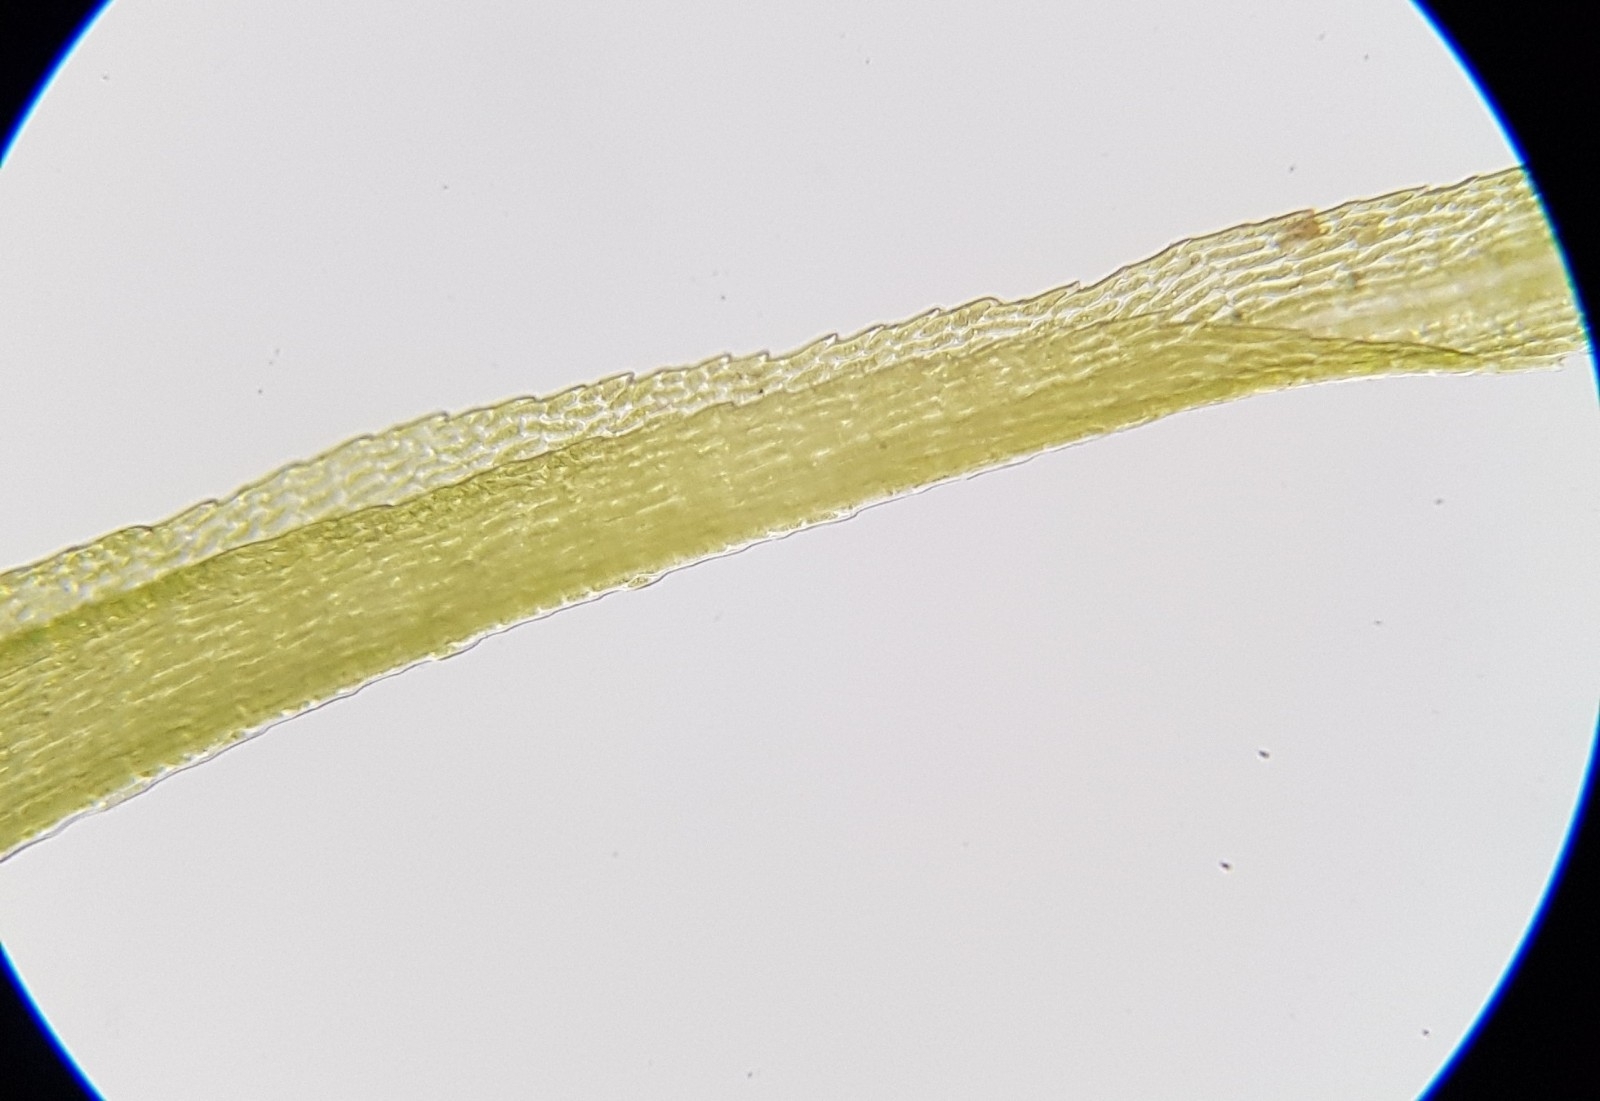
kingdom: Plantae
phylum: Bryophyta
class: Bryopsida
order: Dicranales
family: Dicranaceae
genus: Dicranum
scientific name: Dicranum majus
